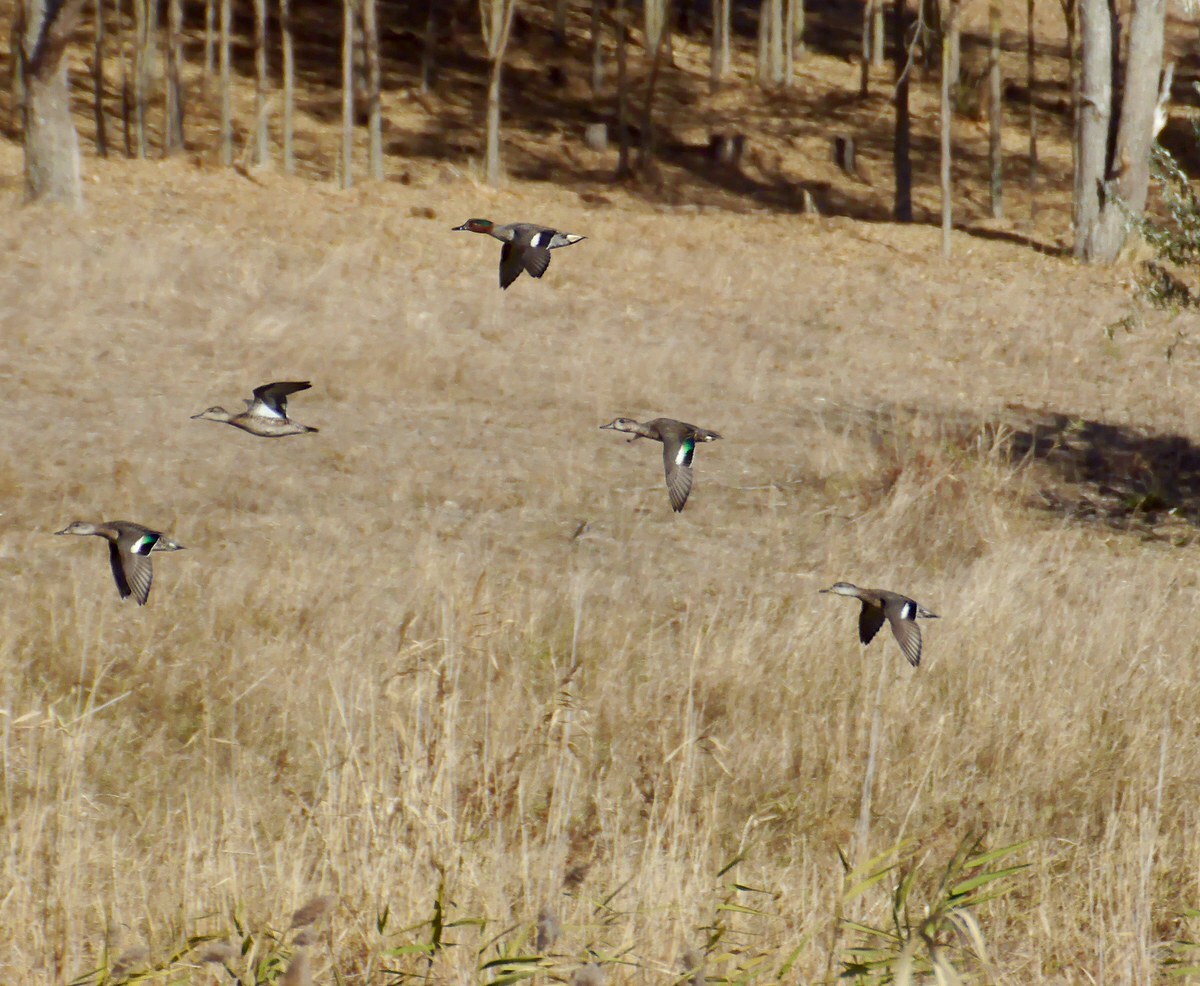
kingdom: Animalia
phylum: Chordata
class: Aves
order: Anseriformes
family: Anatidae
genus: Anas
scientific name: Anas crecca
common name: Eurasian teal
